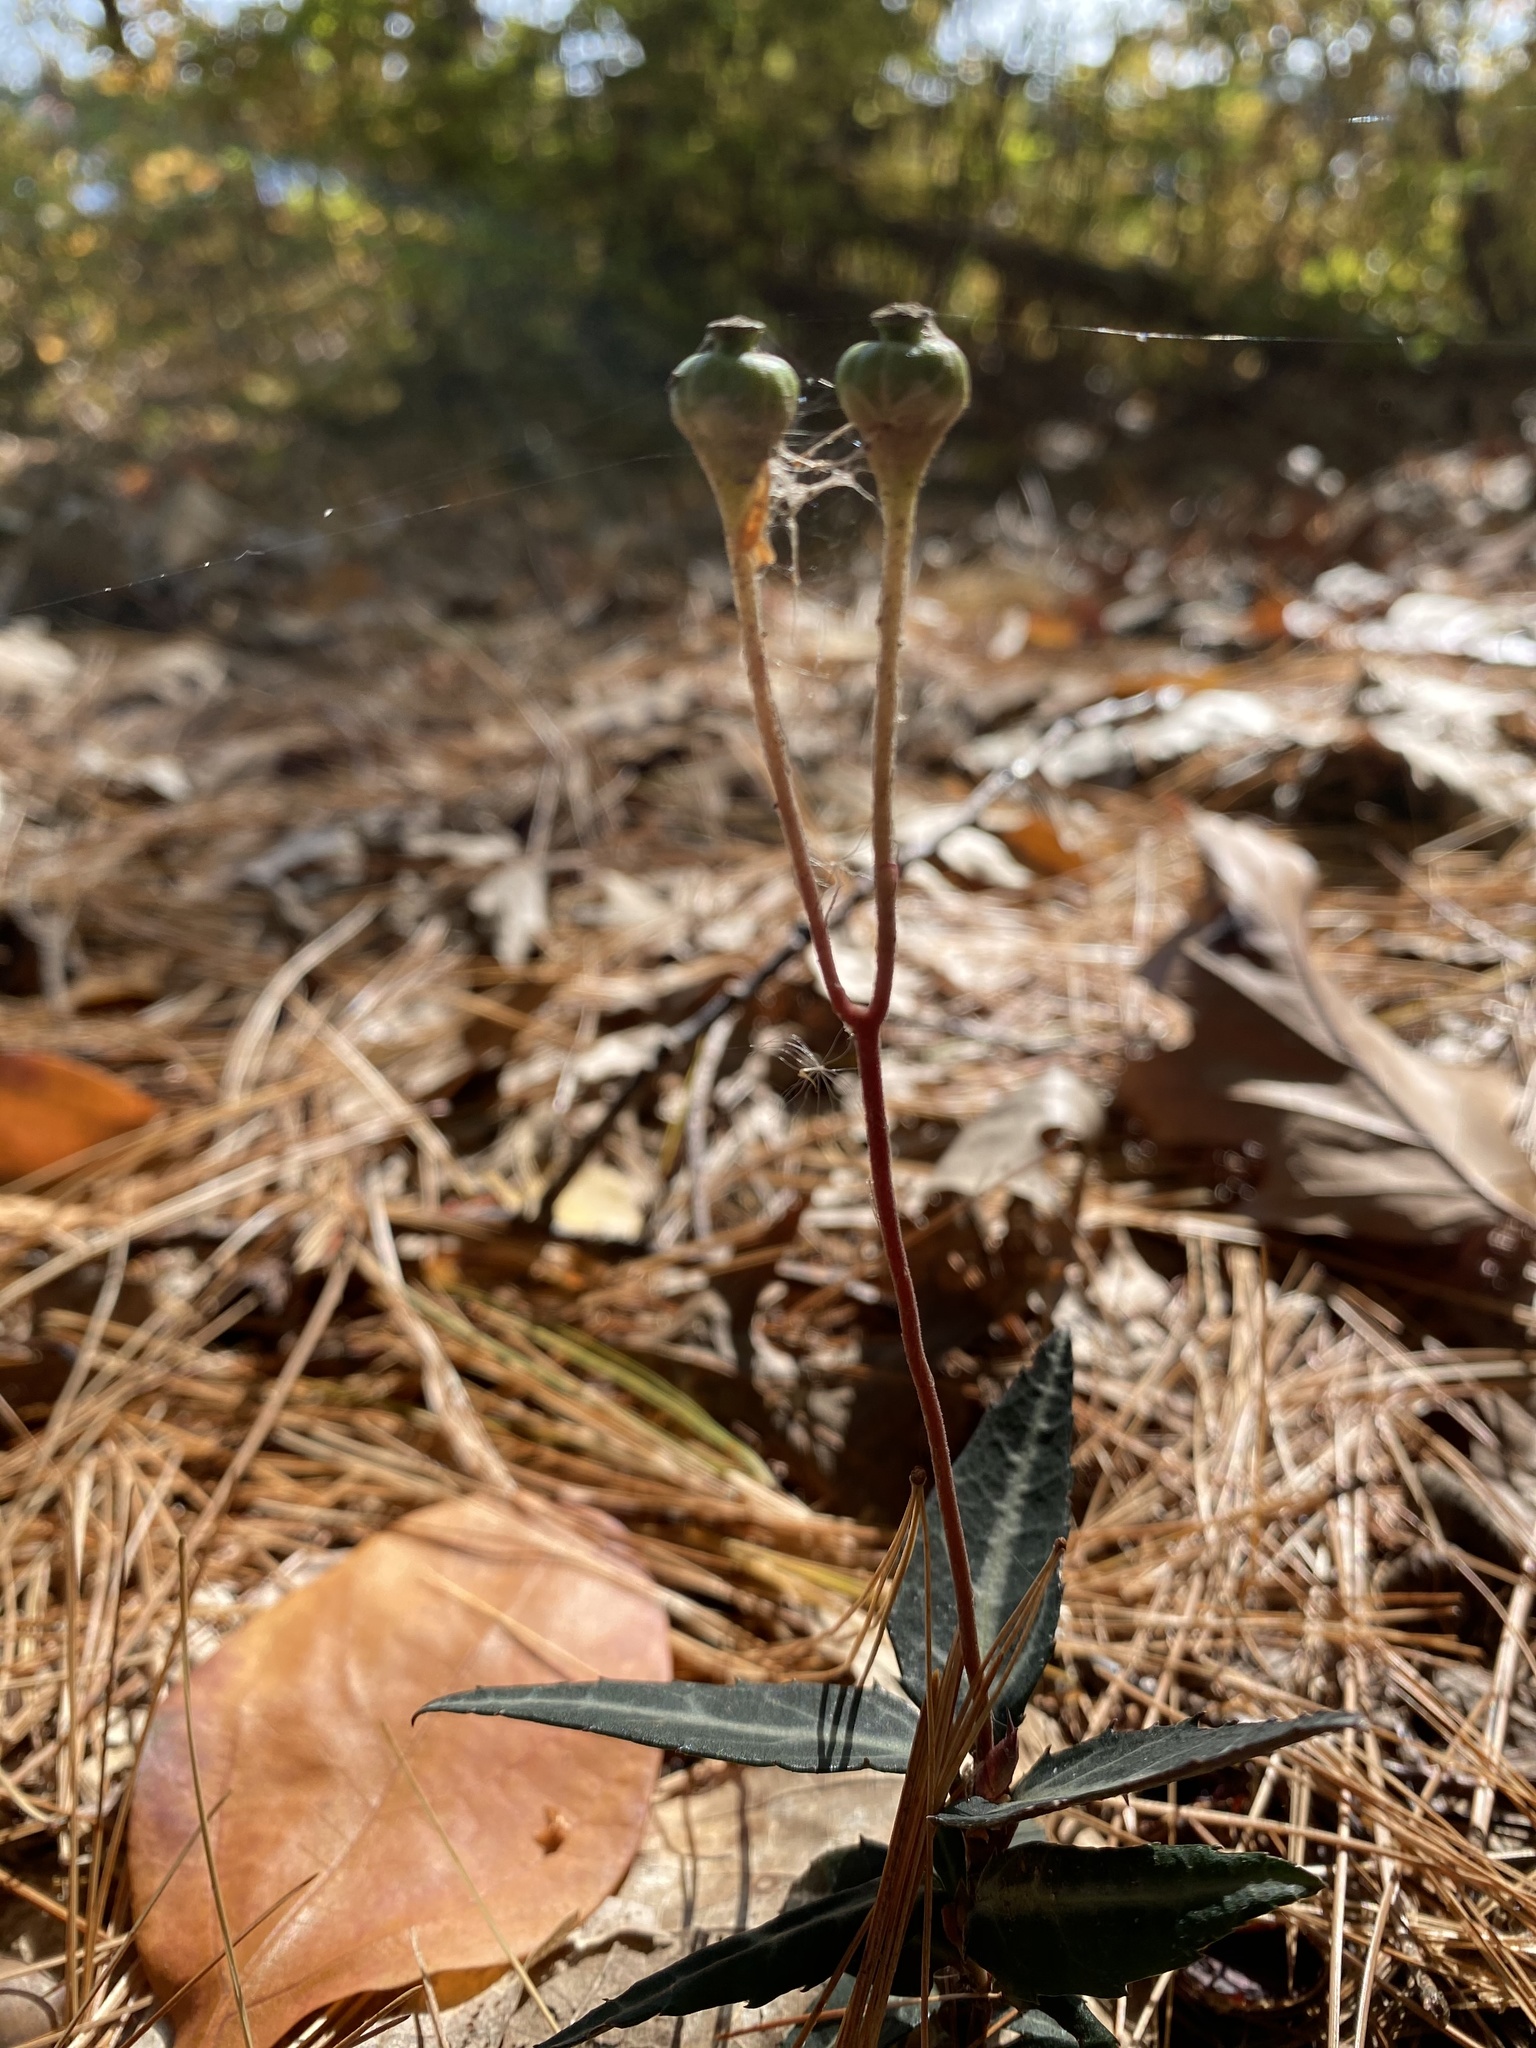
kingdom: Plantae
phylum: Tracheophyta
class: Magnoliopsida
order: Ericales
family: Ericaceae
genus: Chimaphila
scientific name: Chimaphila maculata
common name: Spotted pipsissewa
